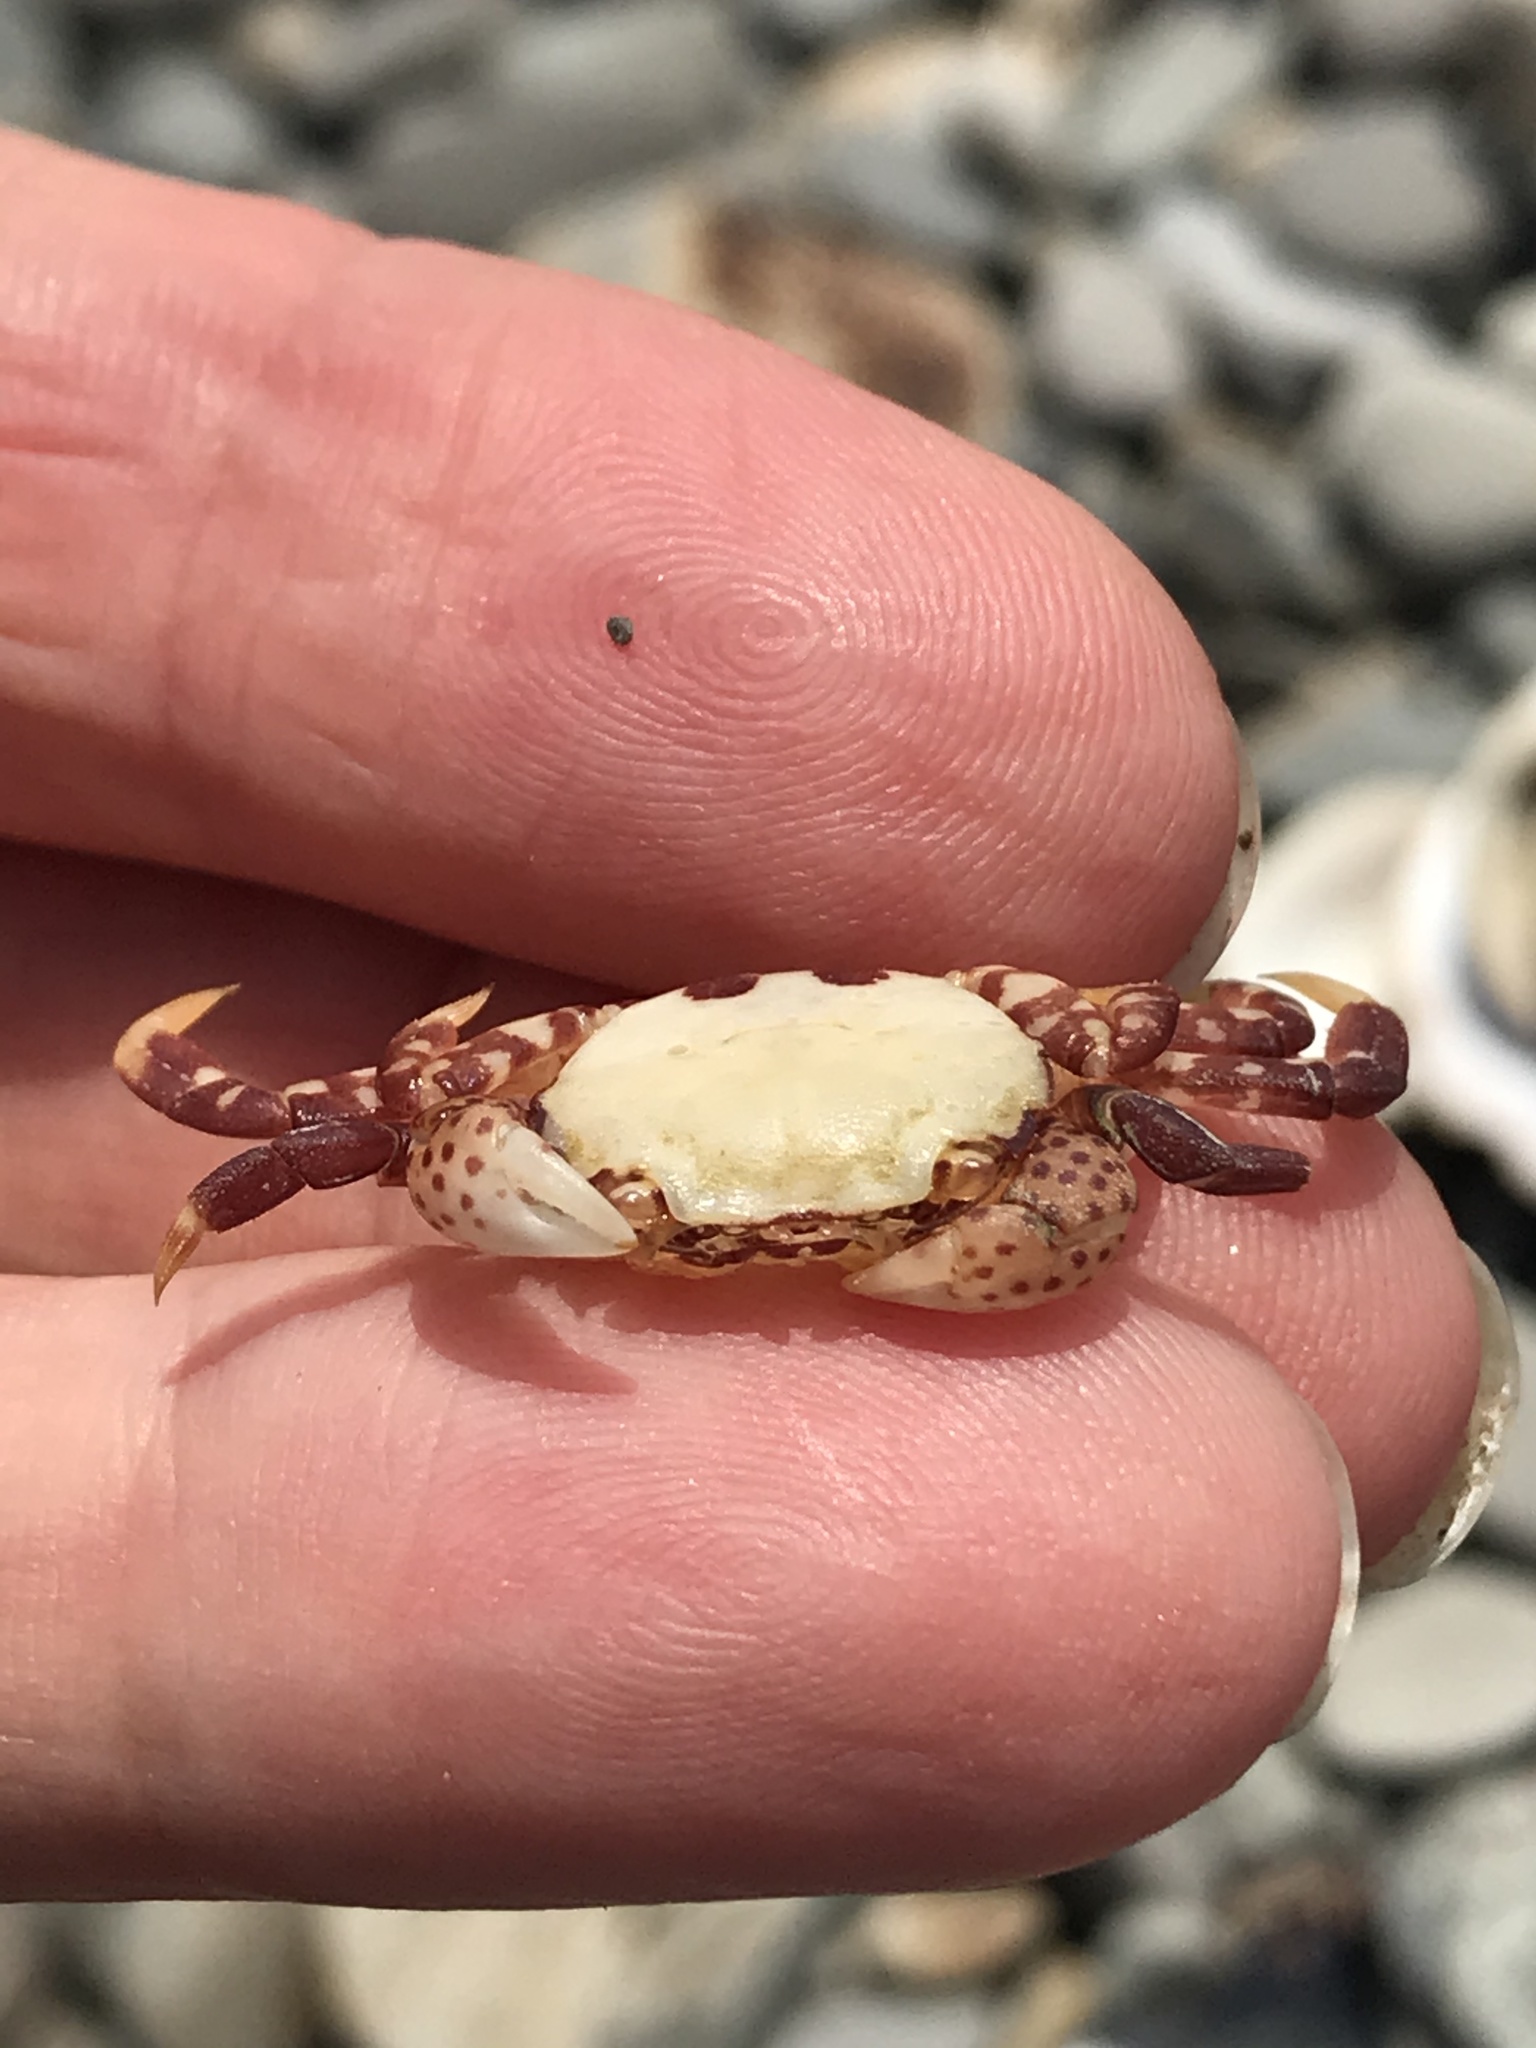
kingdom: Animalia
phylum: Arthropoda
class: Malacostraca
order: Decapoda
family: Varunidae
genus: Hemigrapsus
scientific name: Hemigrapsus nudus
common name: Purple shore crab
